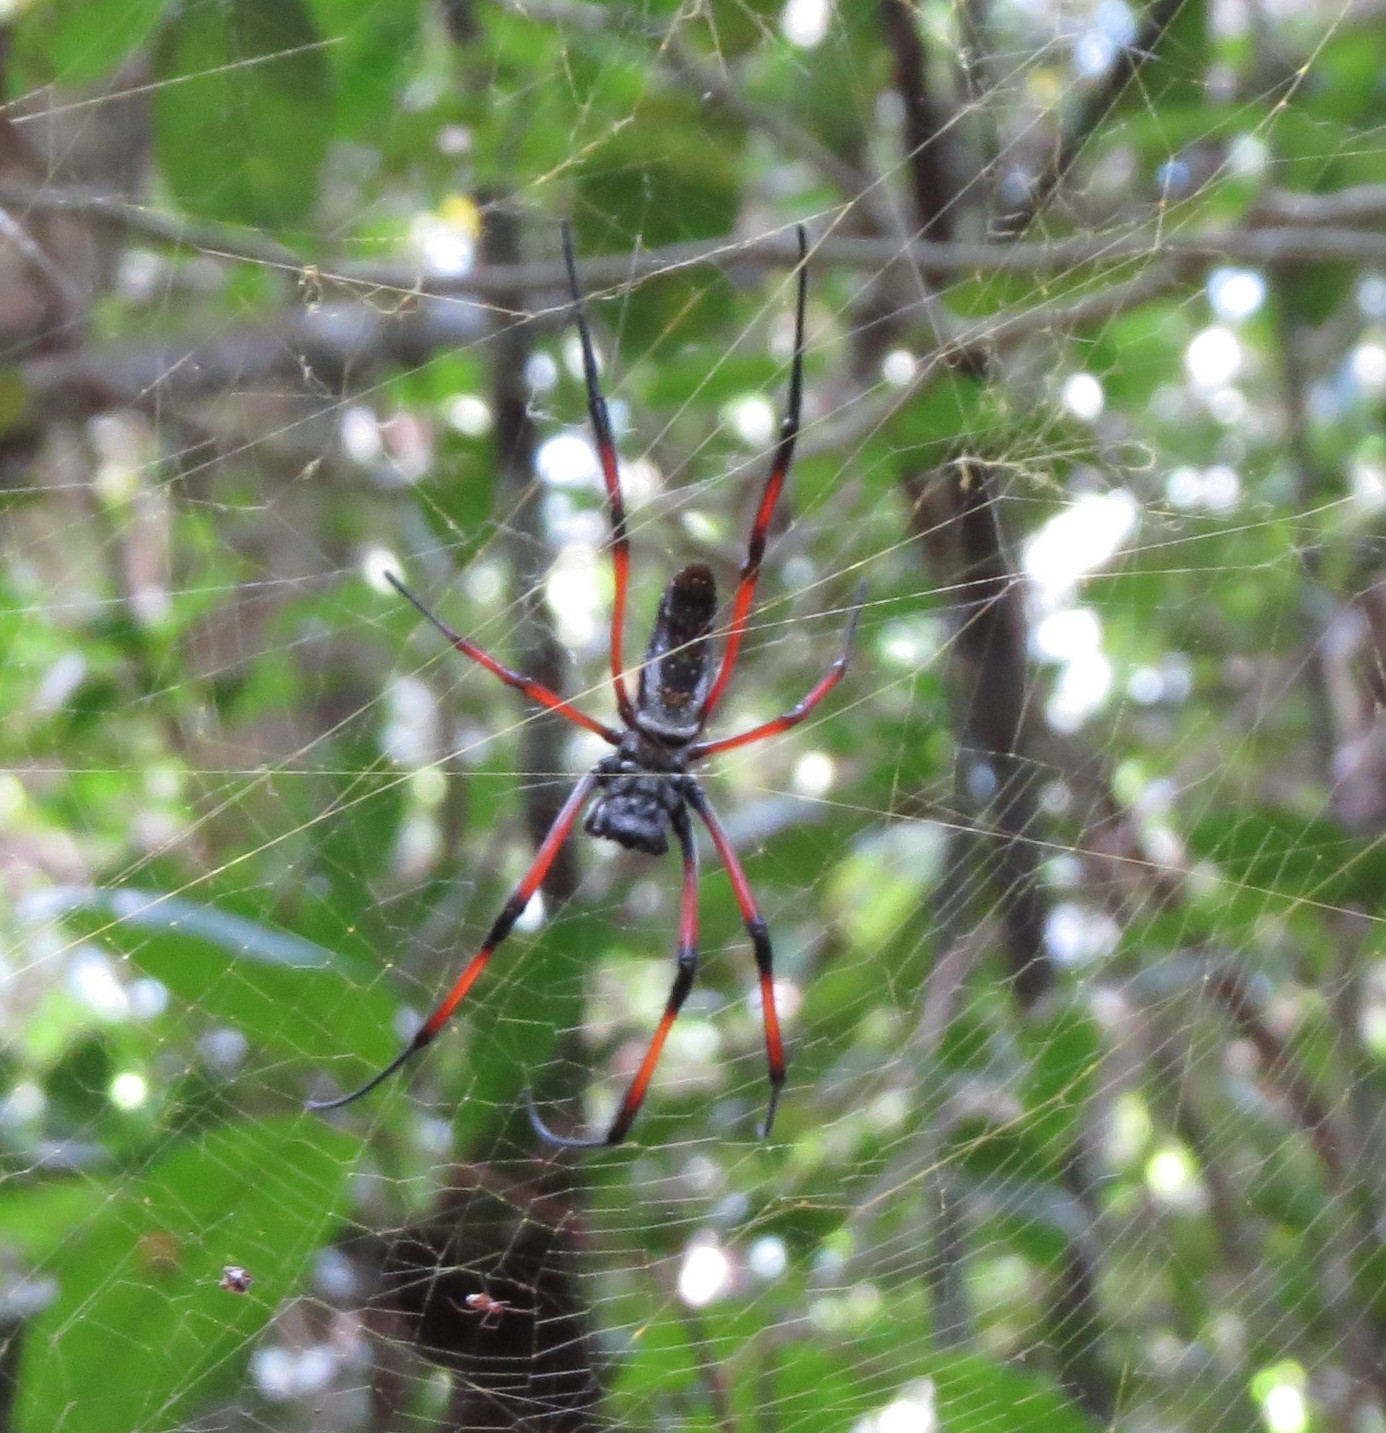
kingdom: Animalia
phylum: Arthropoda
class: Arachnida
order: Araneae
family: Araneidae
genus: Trichonephila
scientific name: Trichonephila inaurata
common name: Red-legged golden orb weaver
